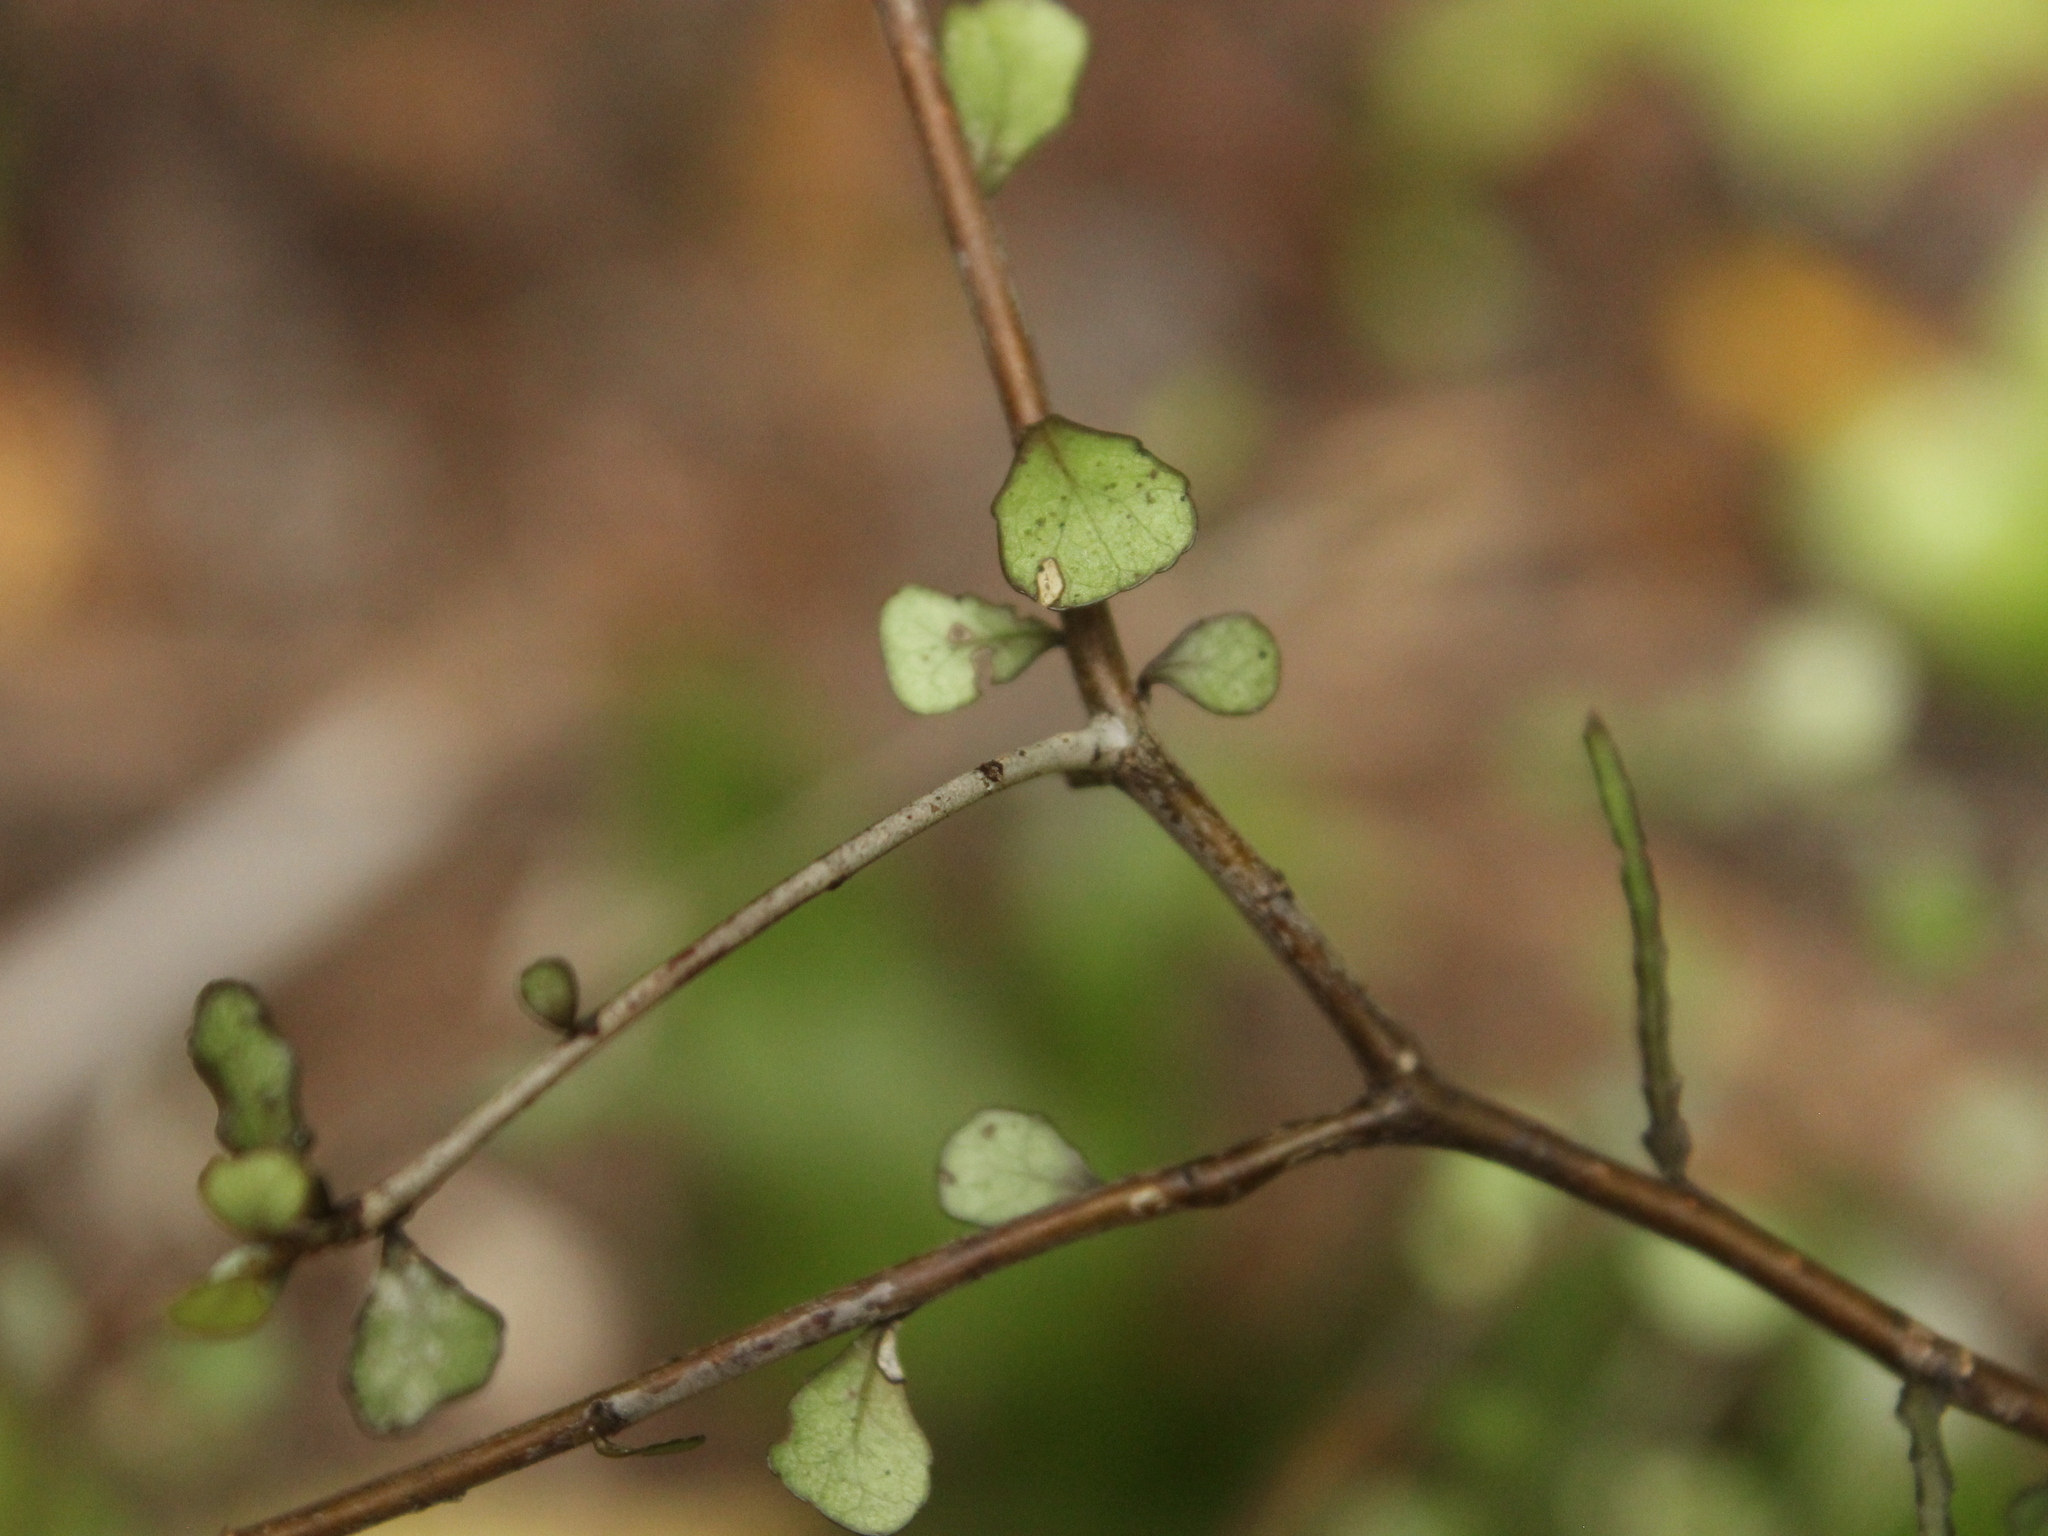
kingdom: Plantae
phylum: Tracheophyta
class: Magnoliopsida
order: Oxalidales
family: Elaeocarpaceae
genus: Elaeocarpus
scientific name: Elaeocarpus hookerianus
